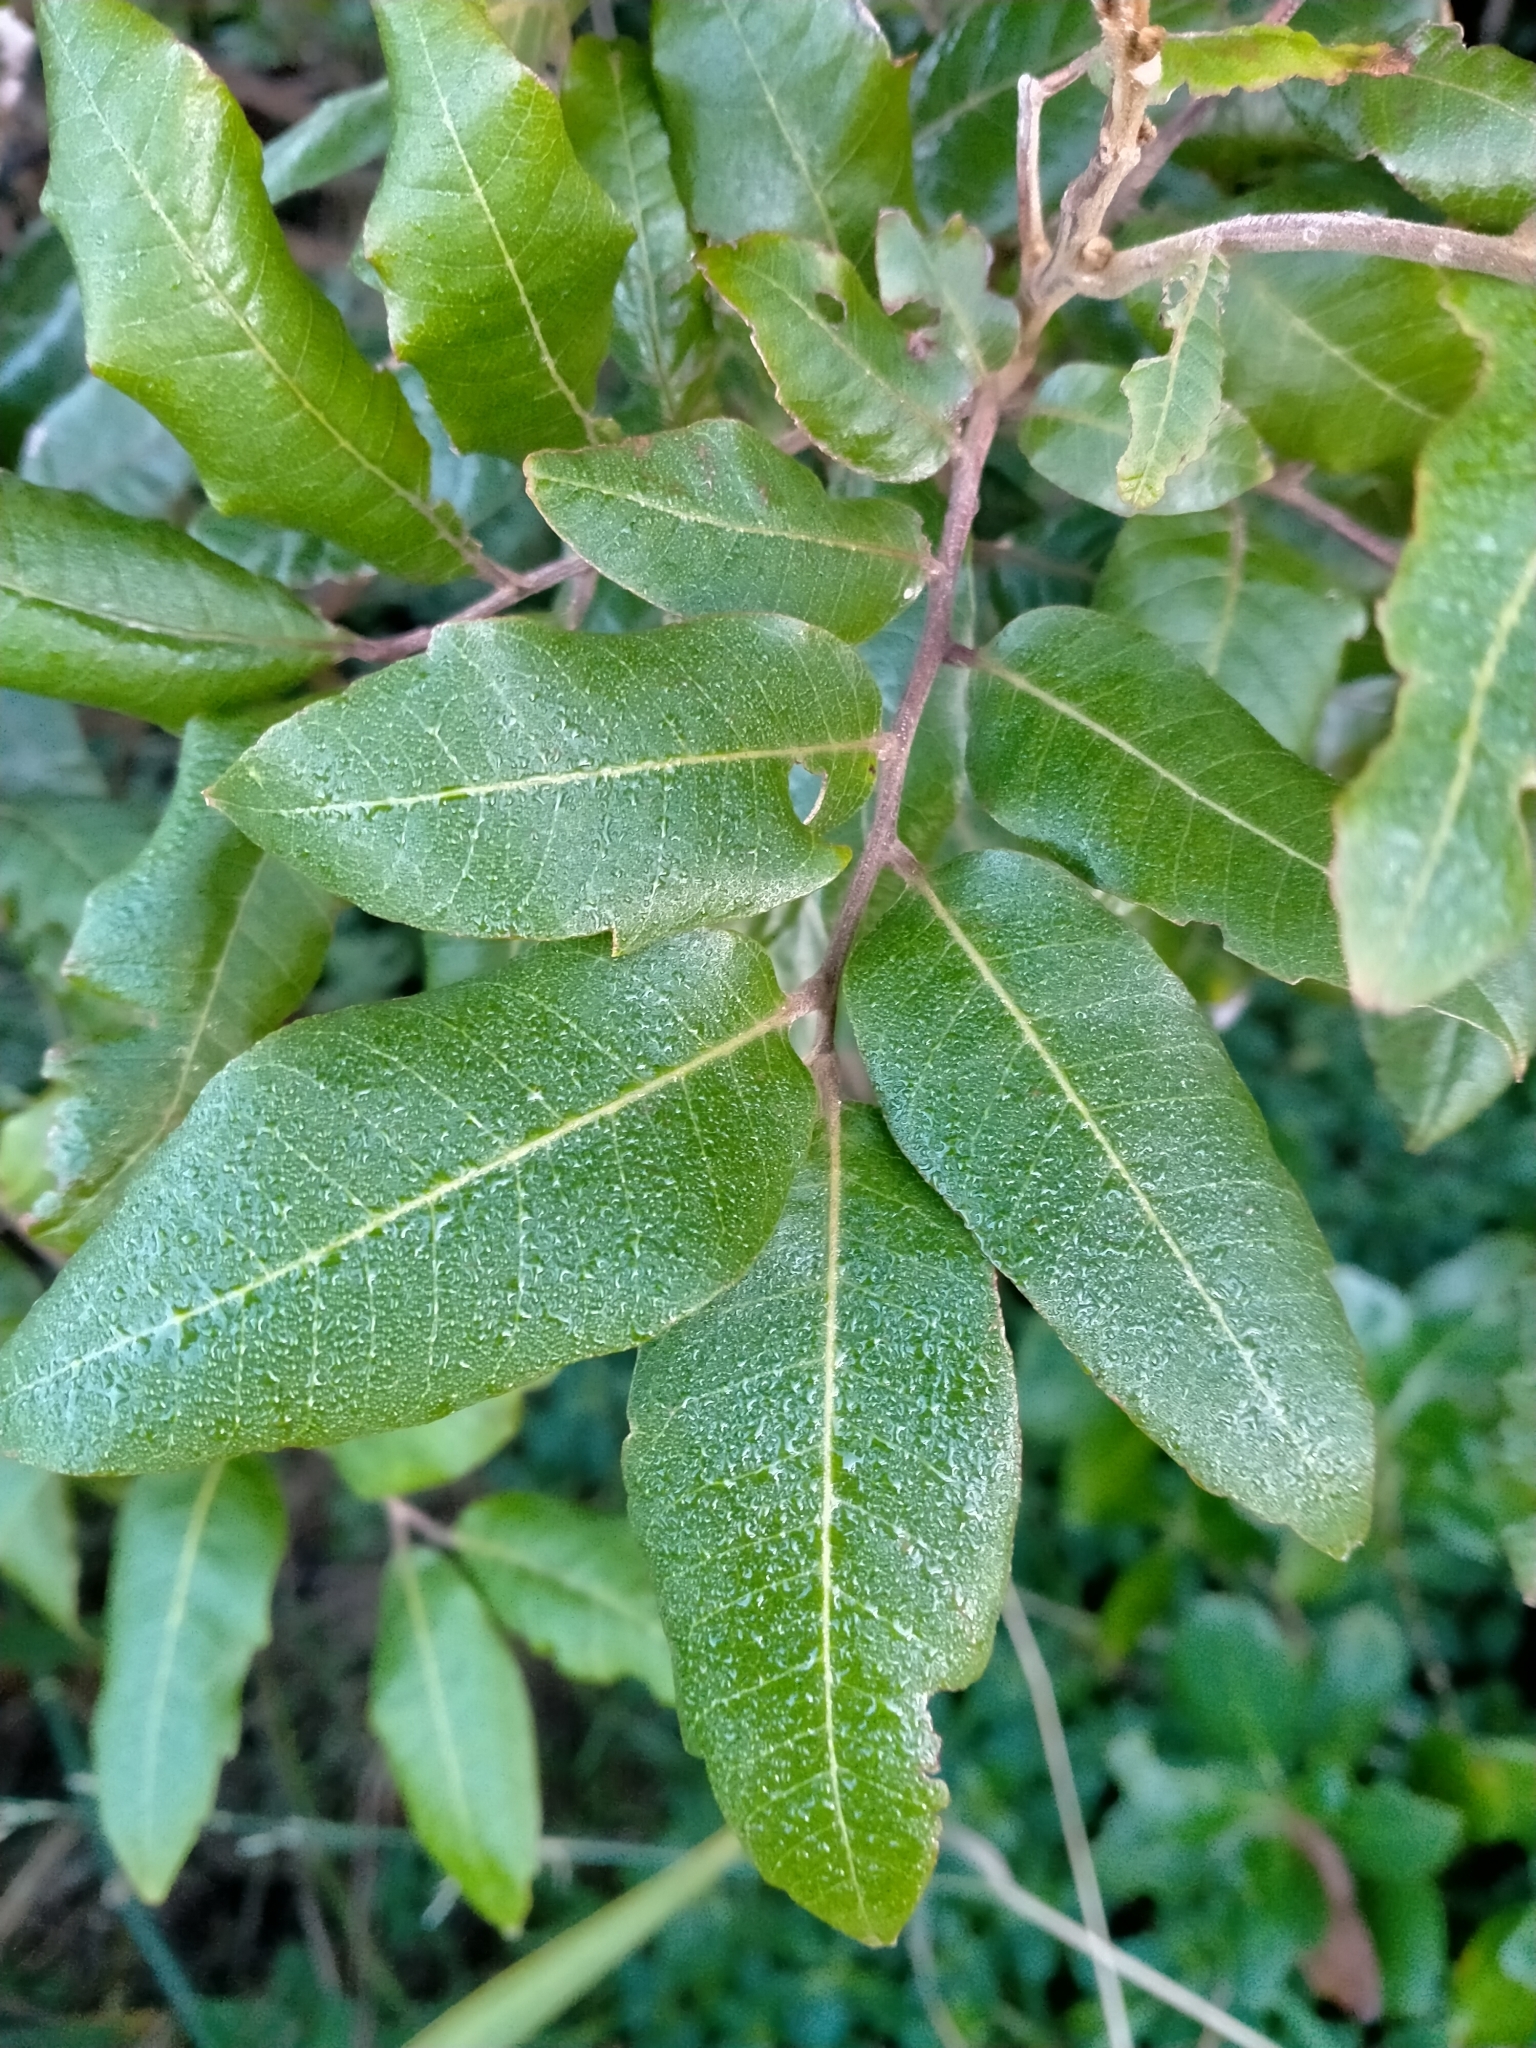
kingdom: Plantae
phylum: Tracheophyta
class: Magnoliopsida
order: Sapindales
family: Sapindaceae
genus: Alectryon
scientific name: Alectryon excelsus
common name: Three kings titoki
